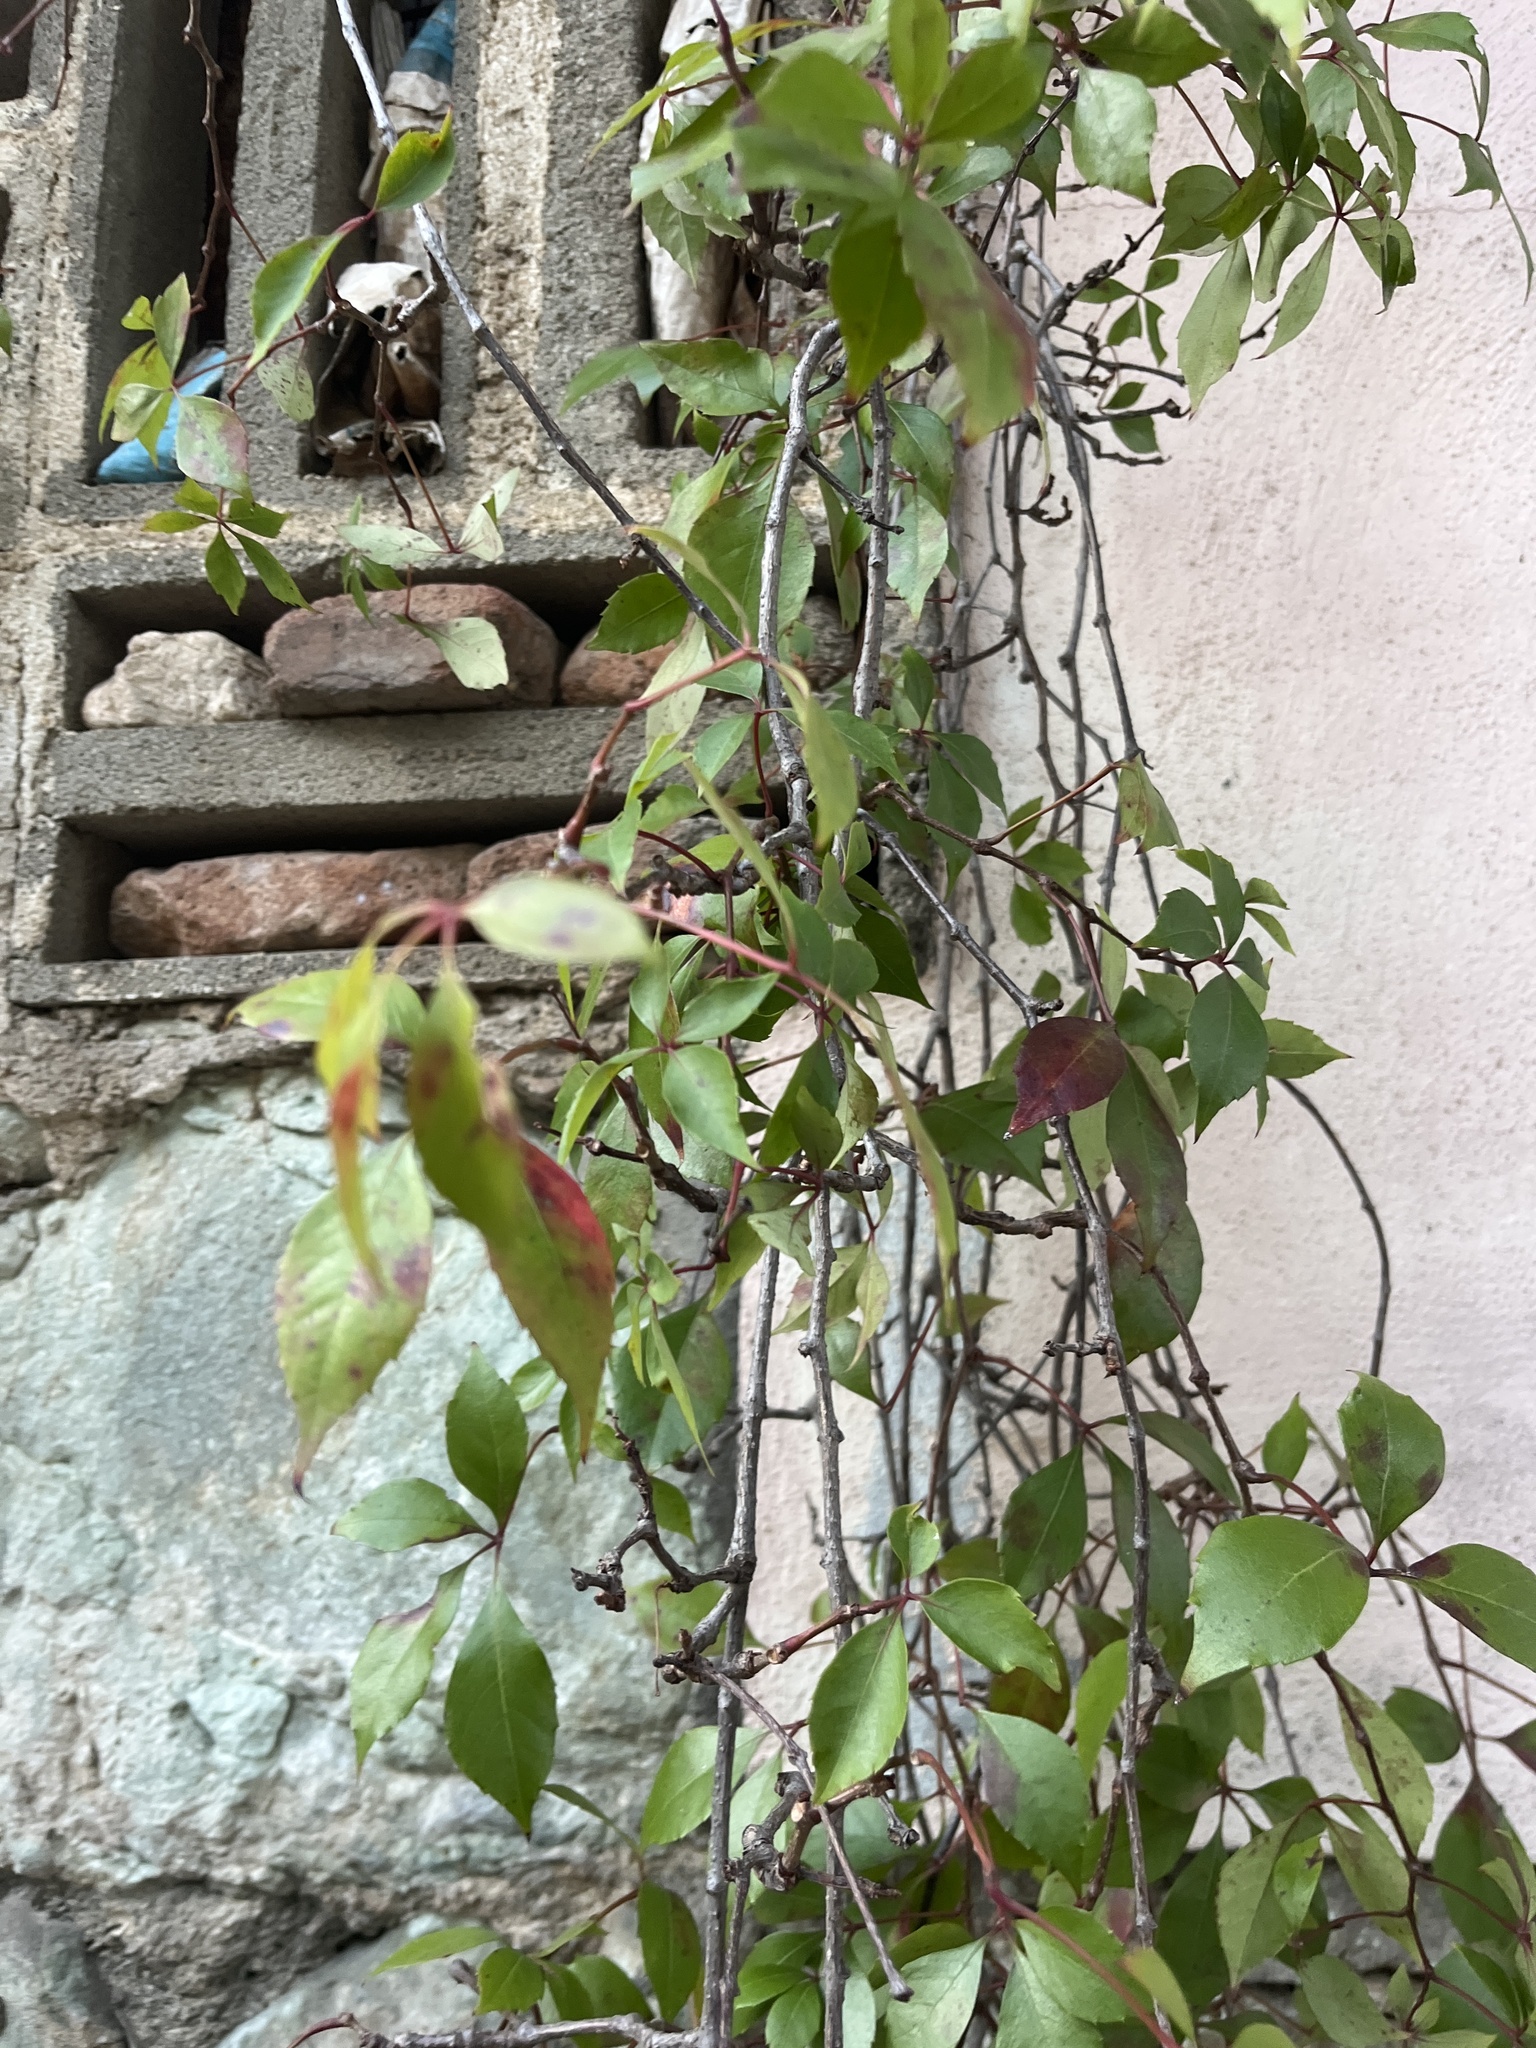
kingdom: Plantae
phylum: Tracheophyta
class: Magnoliopsida
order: Vitales
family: Vitaceae
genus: Parthenocissus
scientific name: Parthenocissus quinquefolia
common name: Virginia-creeper
